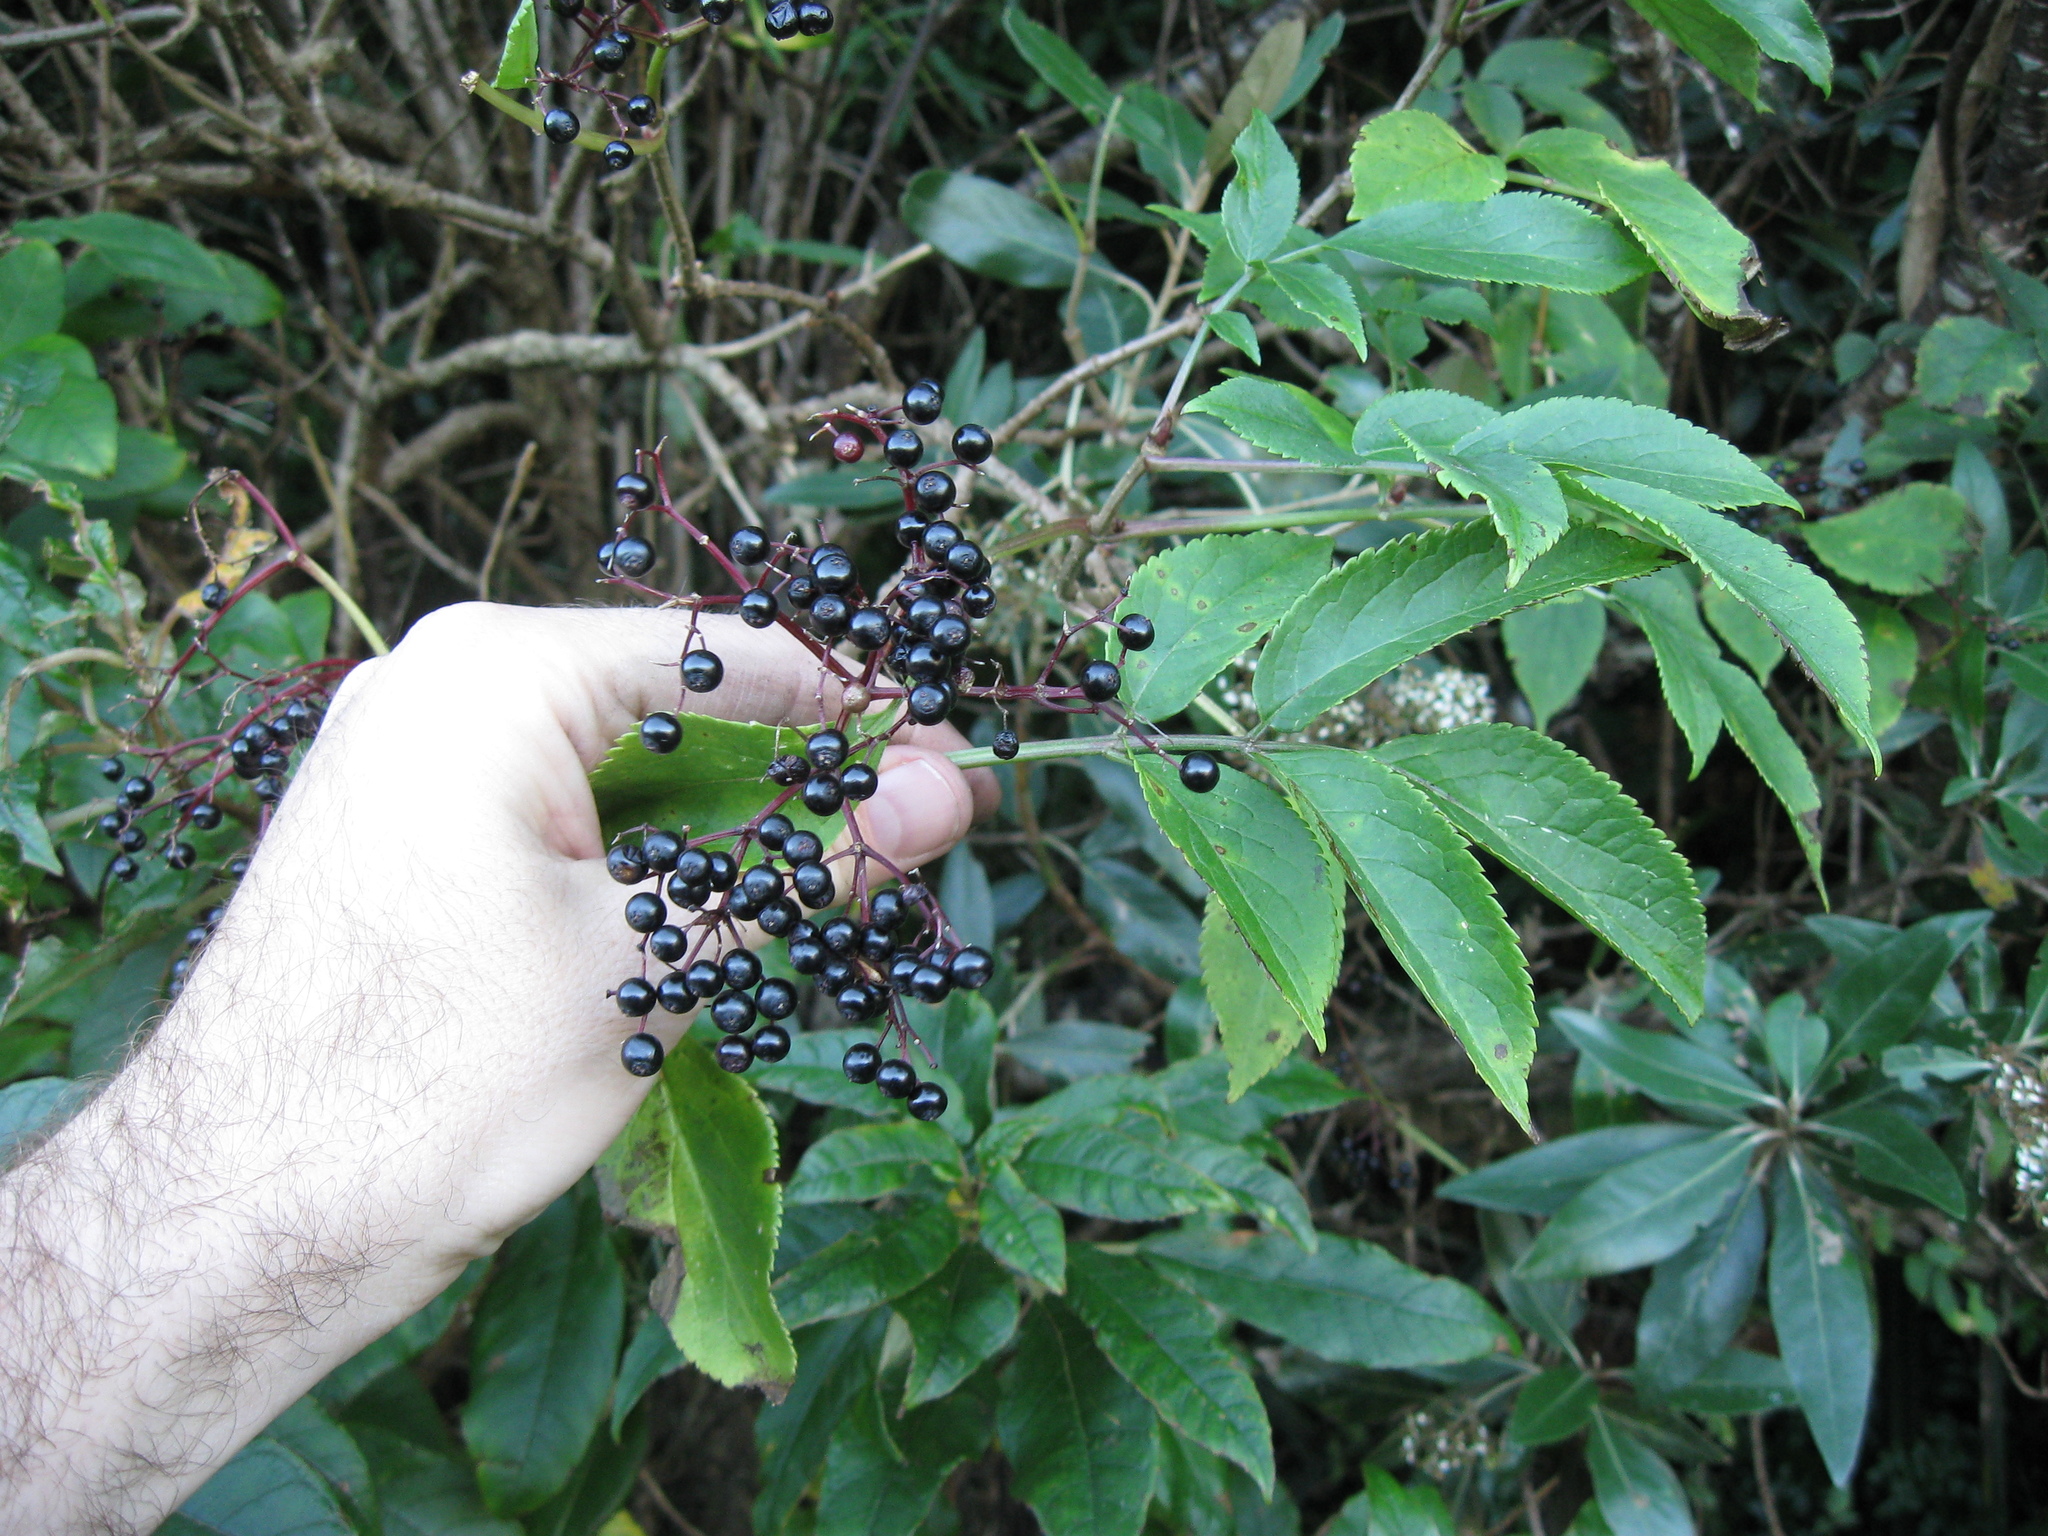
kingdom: Plantae
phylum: Tracheophyta
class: Magnoliopsida
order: Dipsacales
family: Viburnaceae
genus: Sambucus
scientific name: Sambucus nigra
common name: Elder
